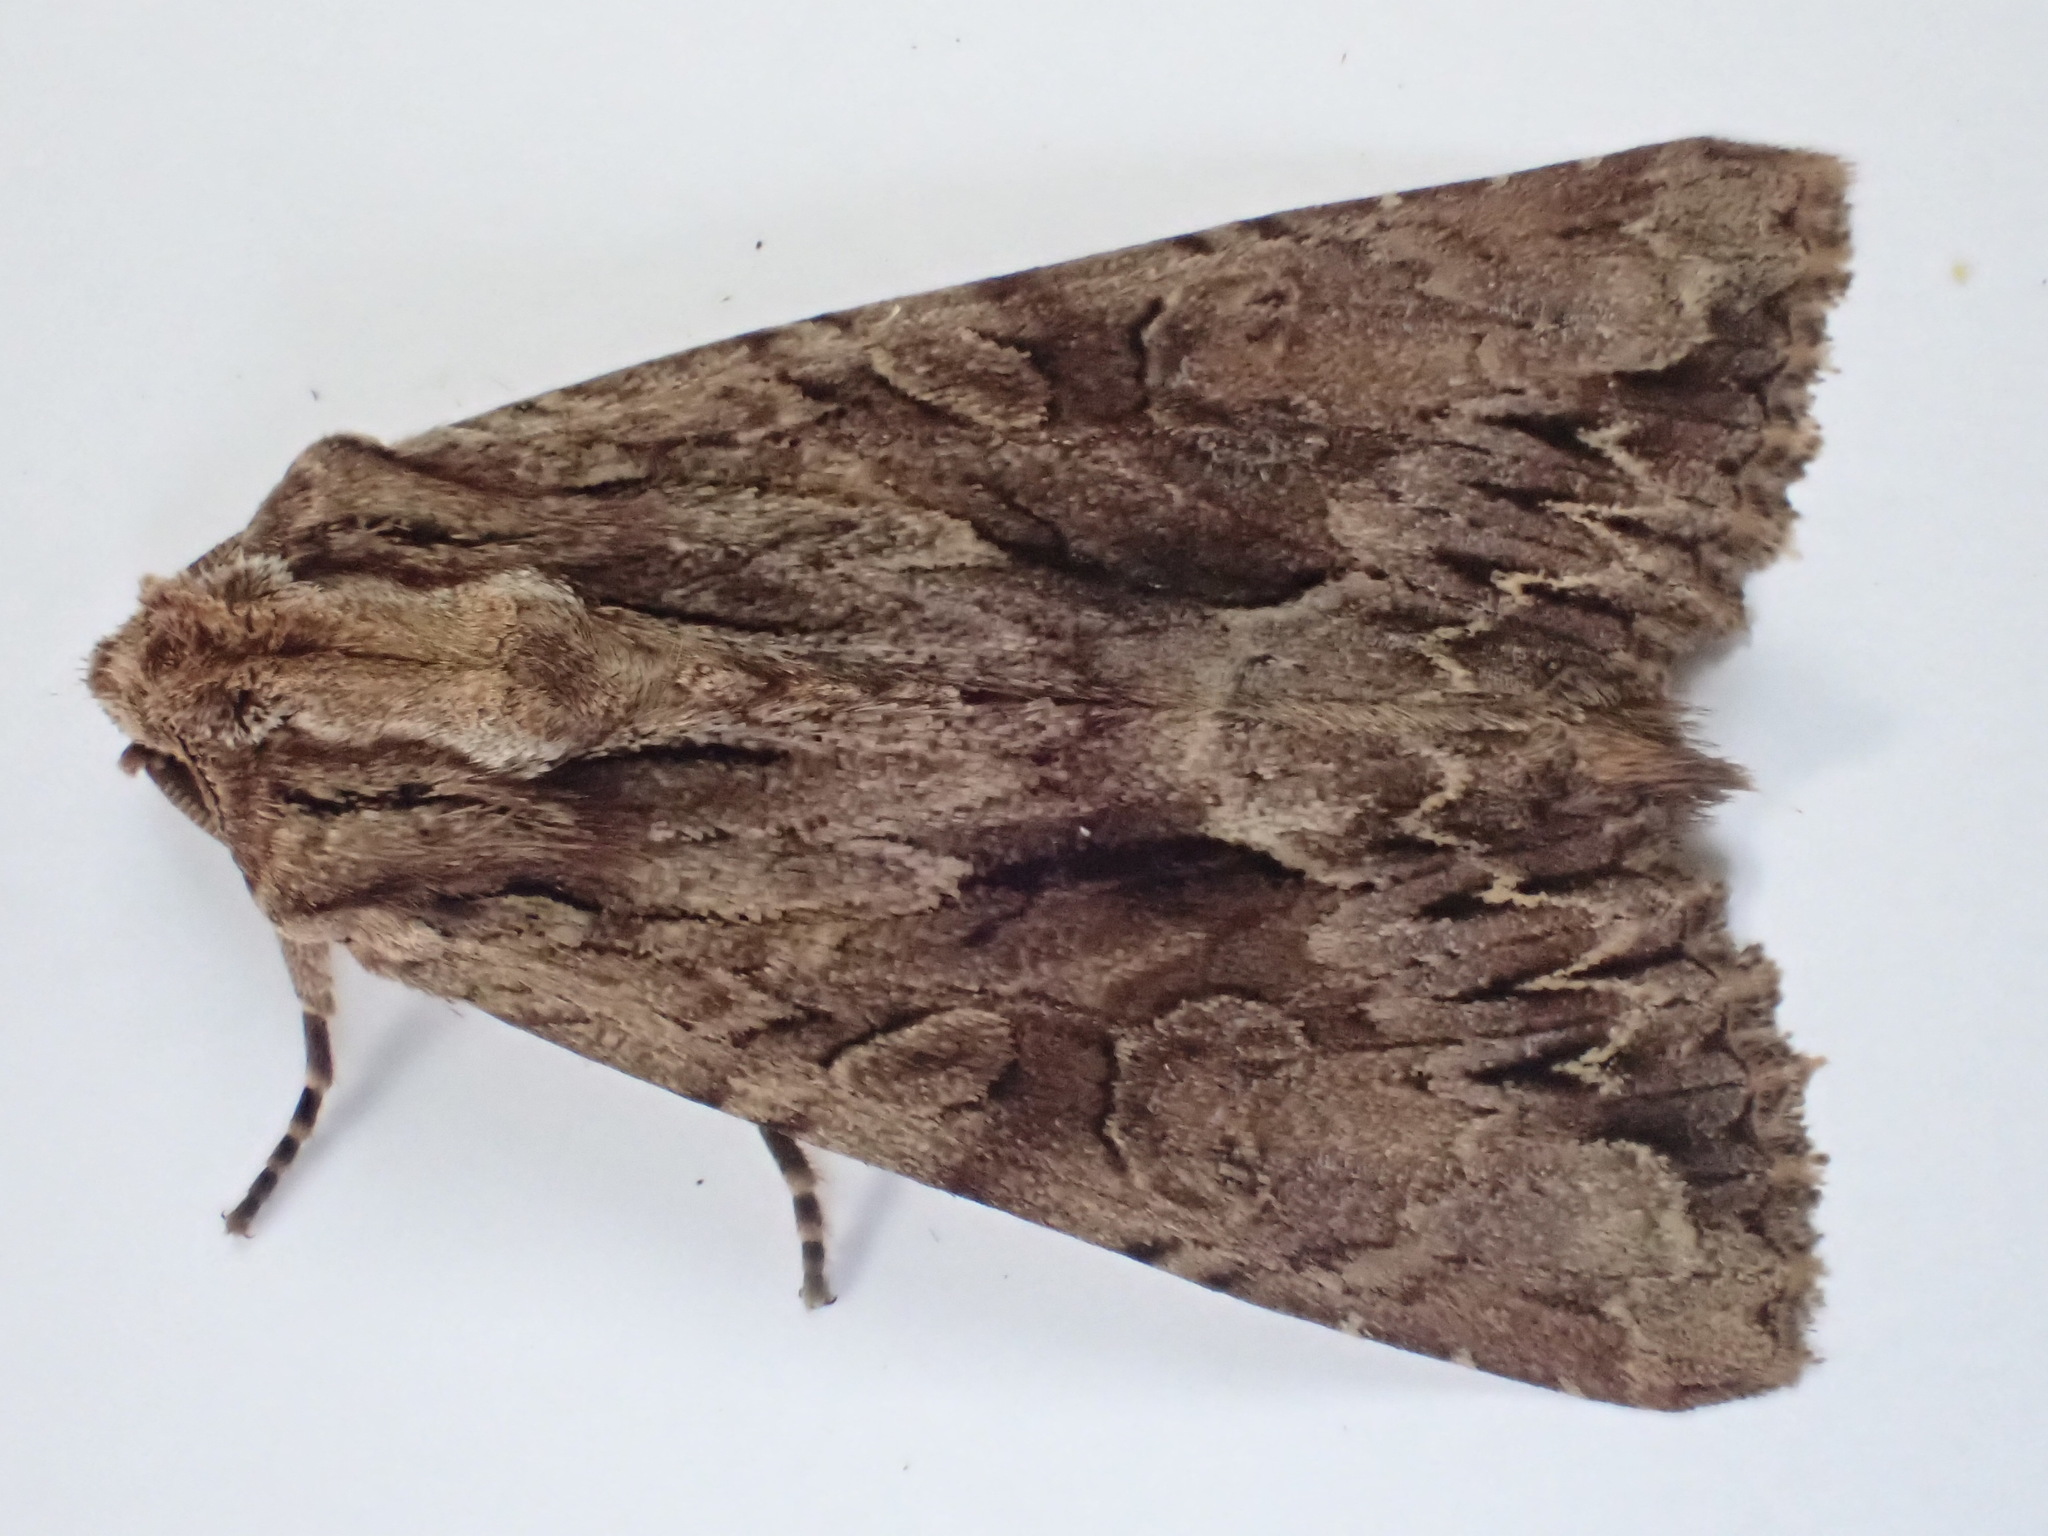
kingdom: Animalia
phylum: Arthropoda
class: Insecta
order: Lepidoptera
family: Noctuidae
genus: Apamea
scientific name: Apamea monoglypha
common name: Dark arches
